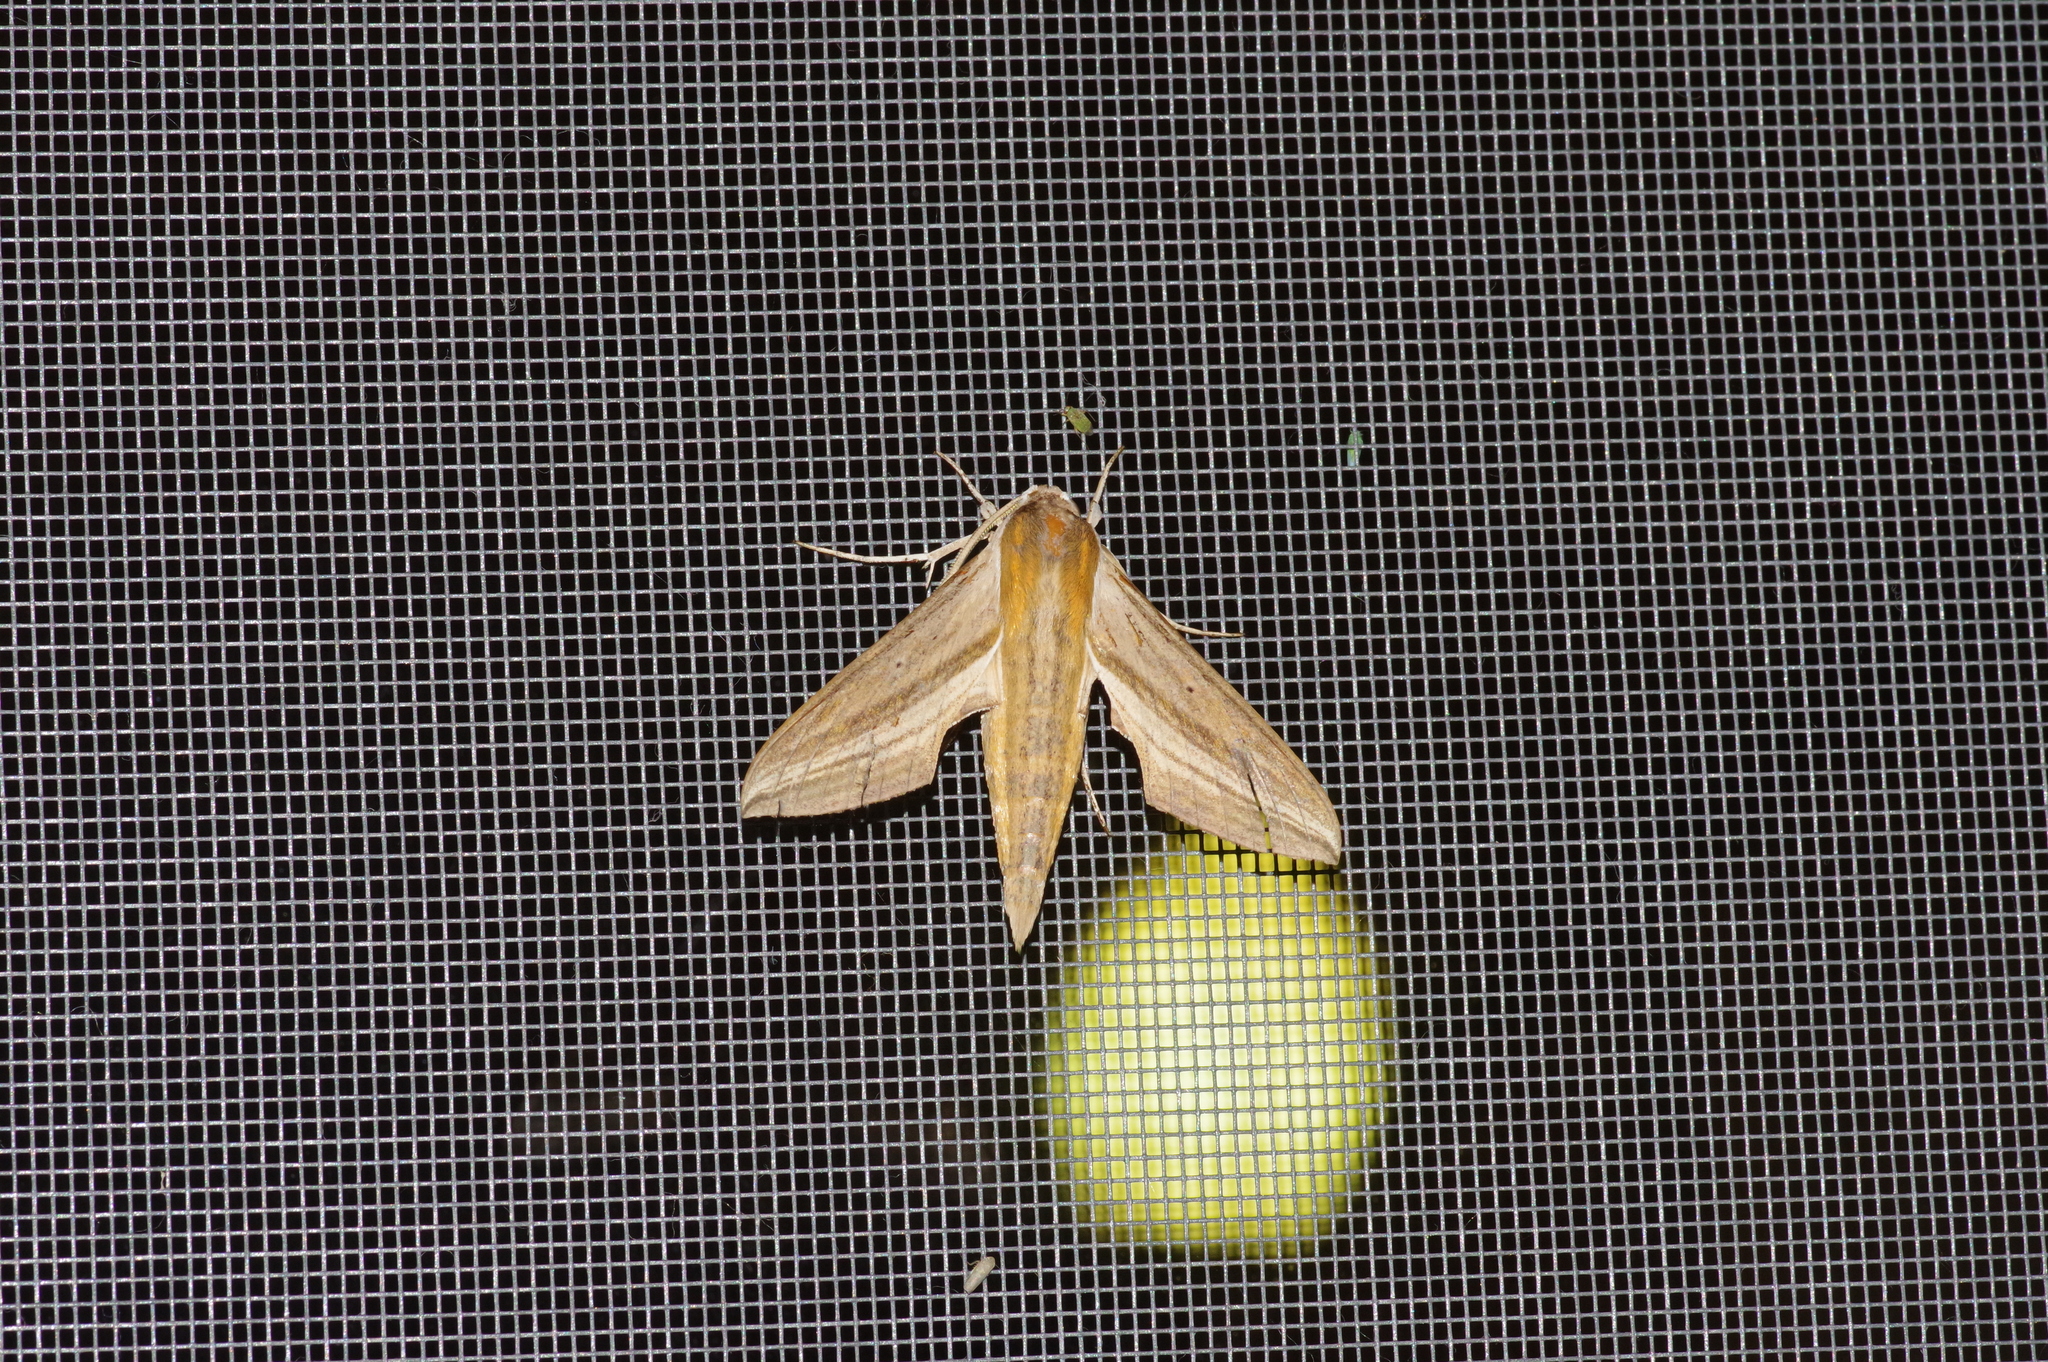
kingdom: Animalia
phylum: Arthropoda
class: Insecta
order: Lepidoptera
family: Sphingidae
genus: Theretra
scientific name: Theretra japonica
